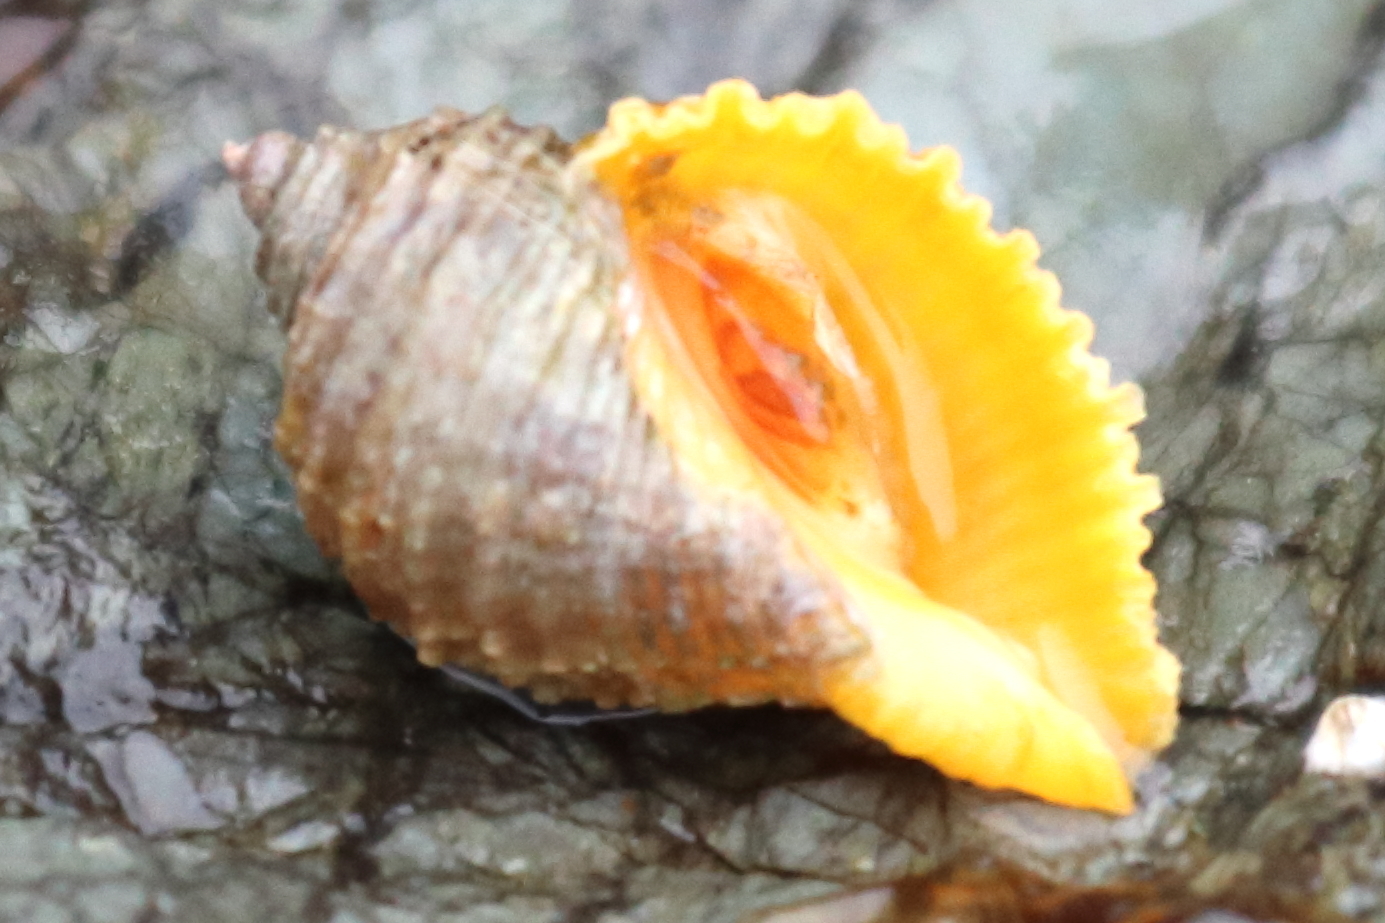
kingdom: Animalia
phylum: Mollusca
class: Gastropoda
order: Neogastropoda
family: Muricidae
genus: Nucella
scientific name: Nucella lima
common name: Rough purple
